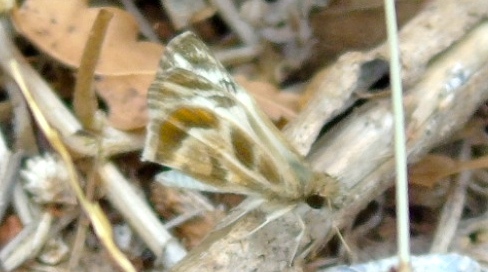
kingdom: Animalia
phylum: Arthropoda
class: Insecta
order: Lepidoptera
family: Hesperiidae
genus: Heliopetes
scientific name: Heliopetes macaira
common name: Turk's-cap white-skipper
